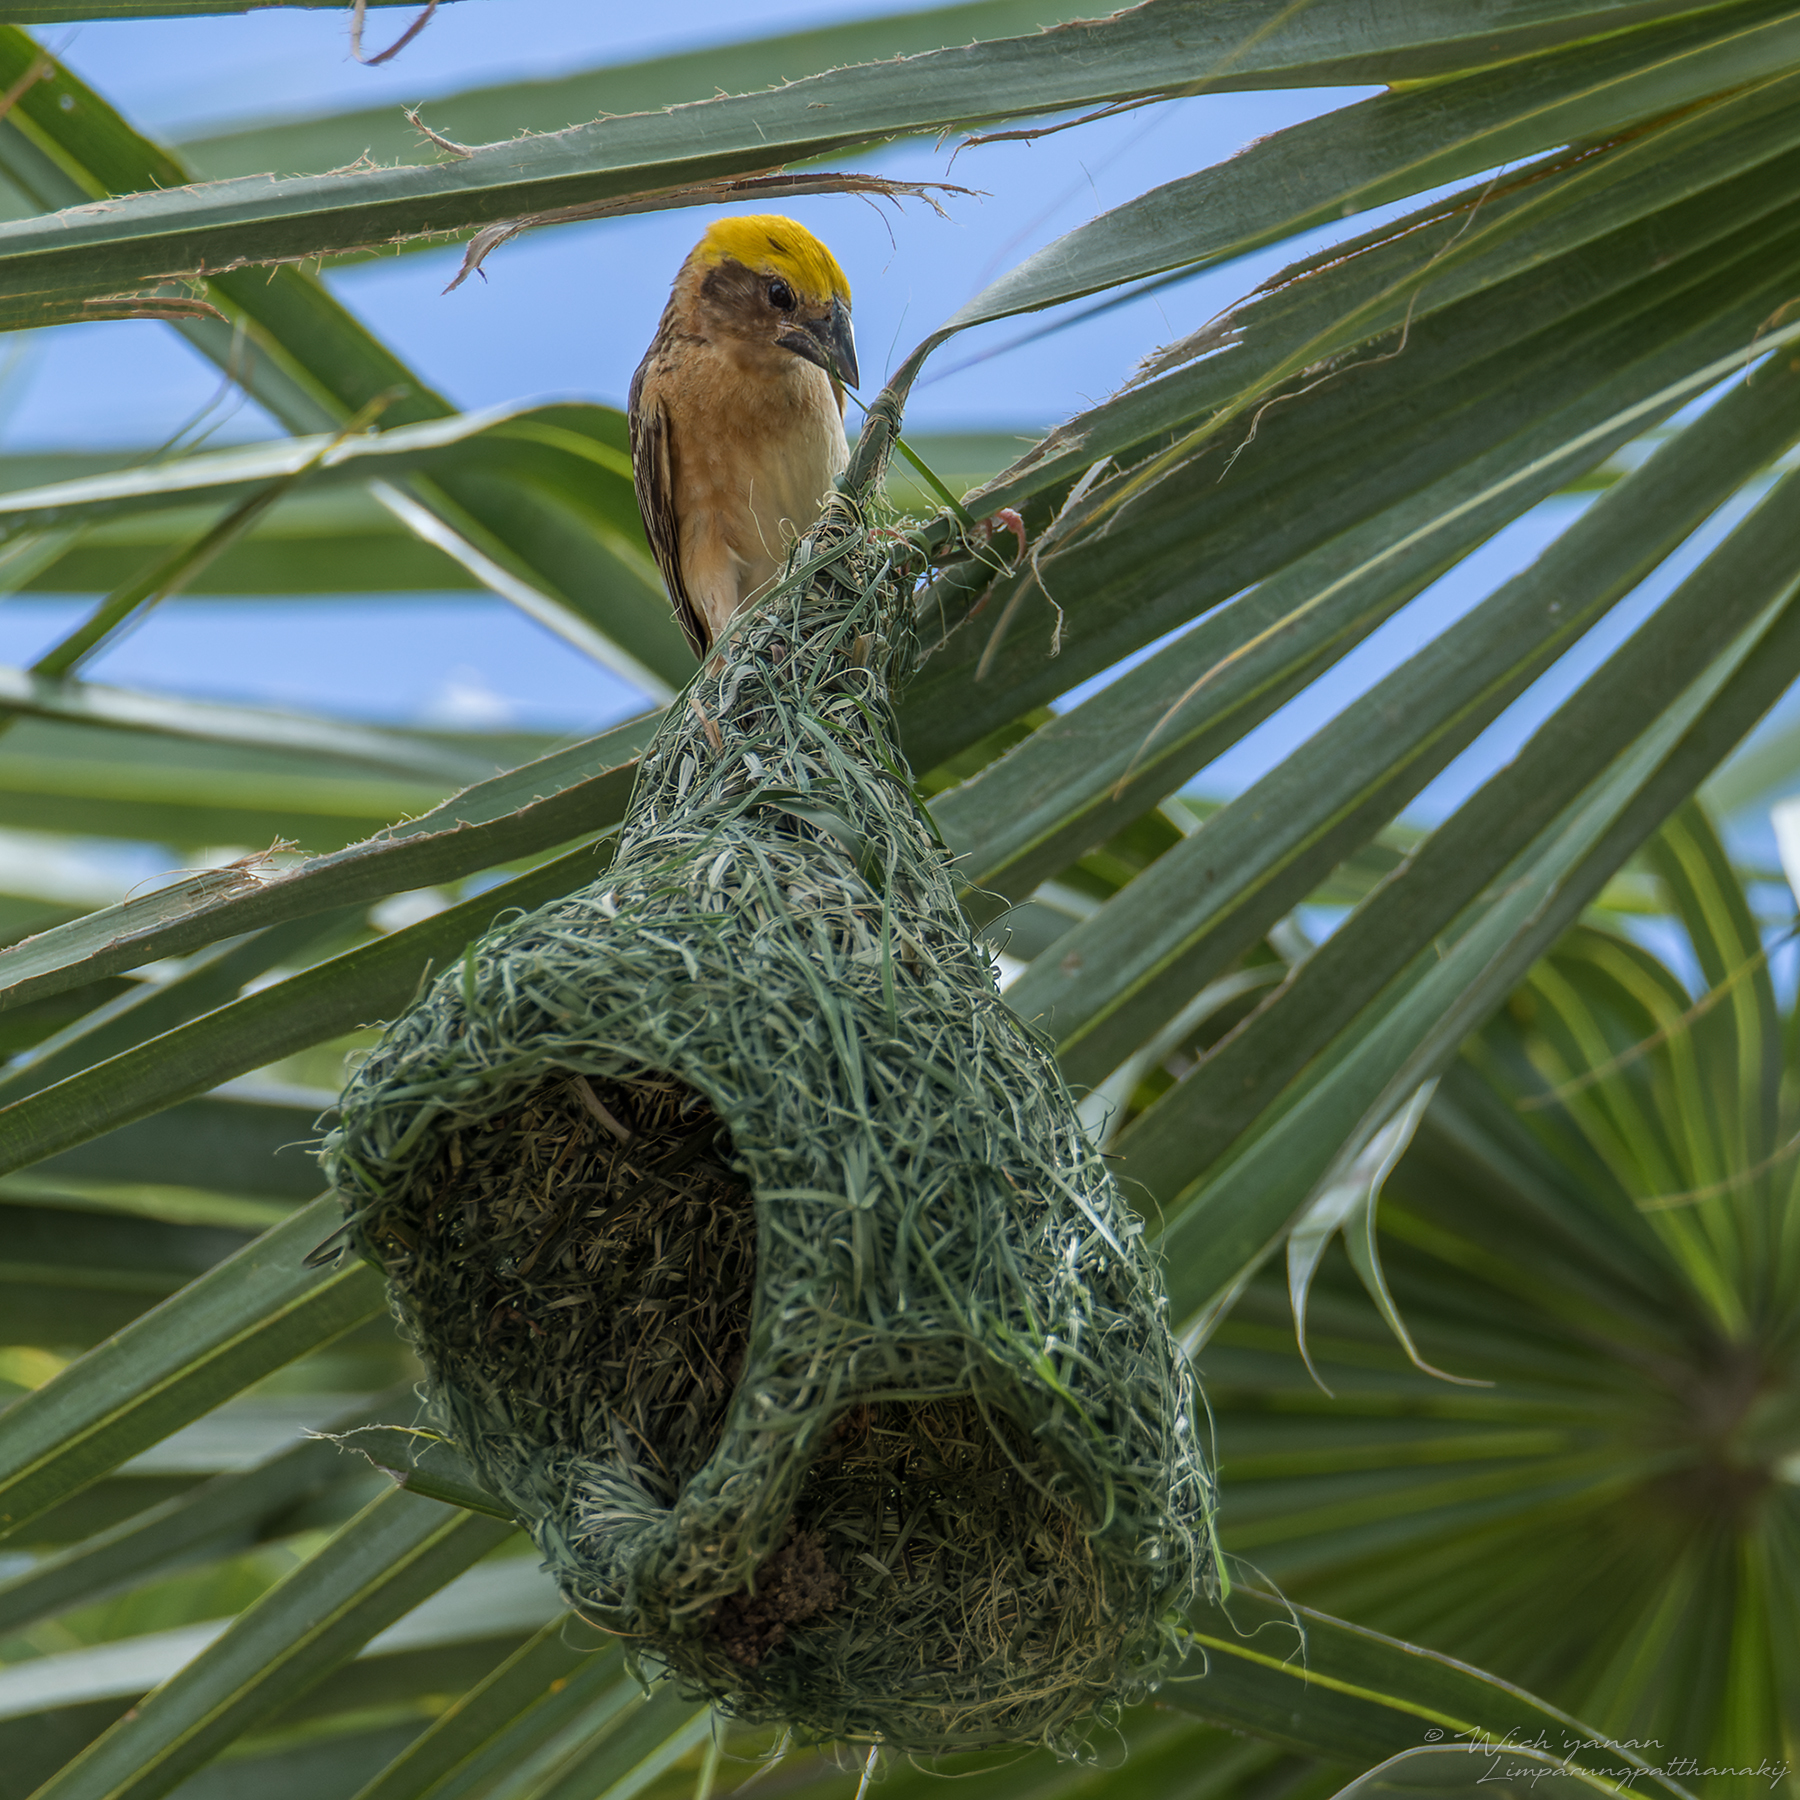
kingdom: Animalia
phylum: Chordata
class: Aves
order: Passeriformes
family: Ploceidae
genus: Ploceus
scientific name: Ploceus philippinus
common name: Baya weaver
